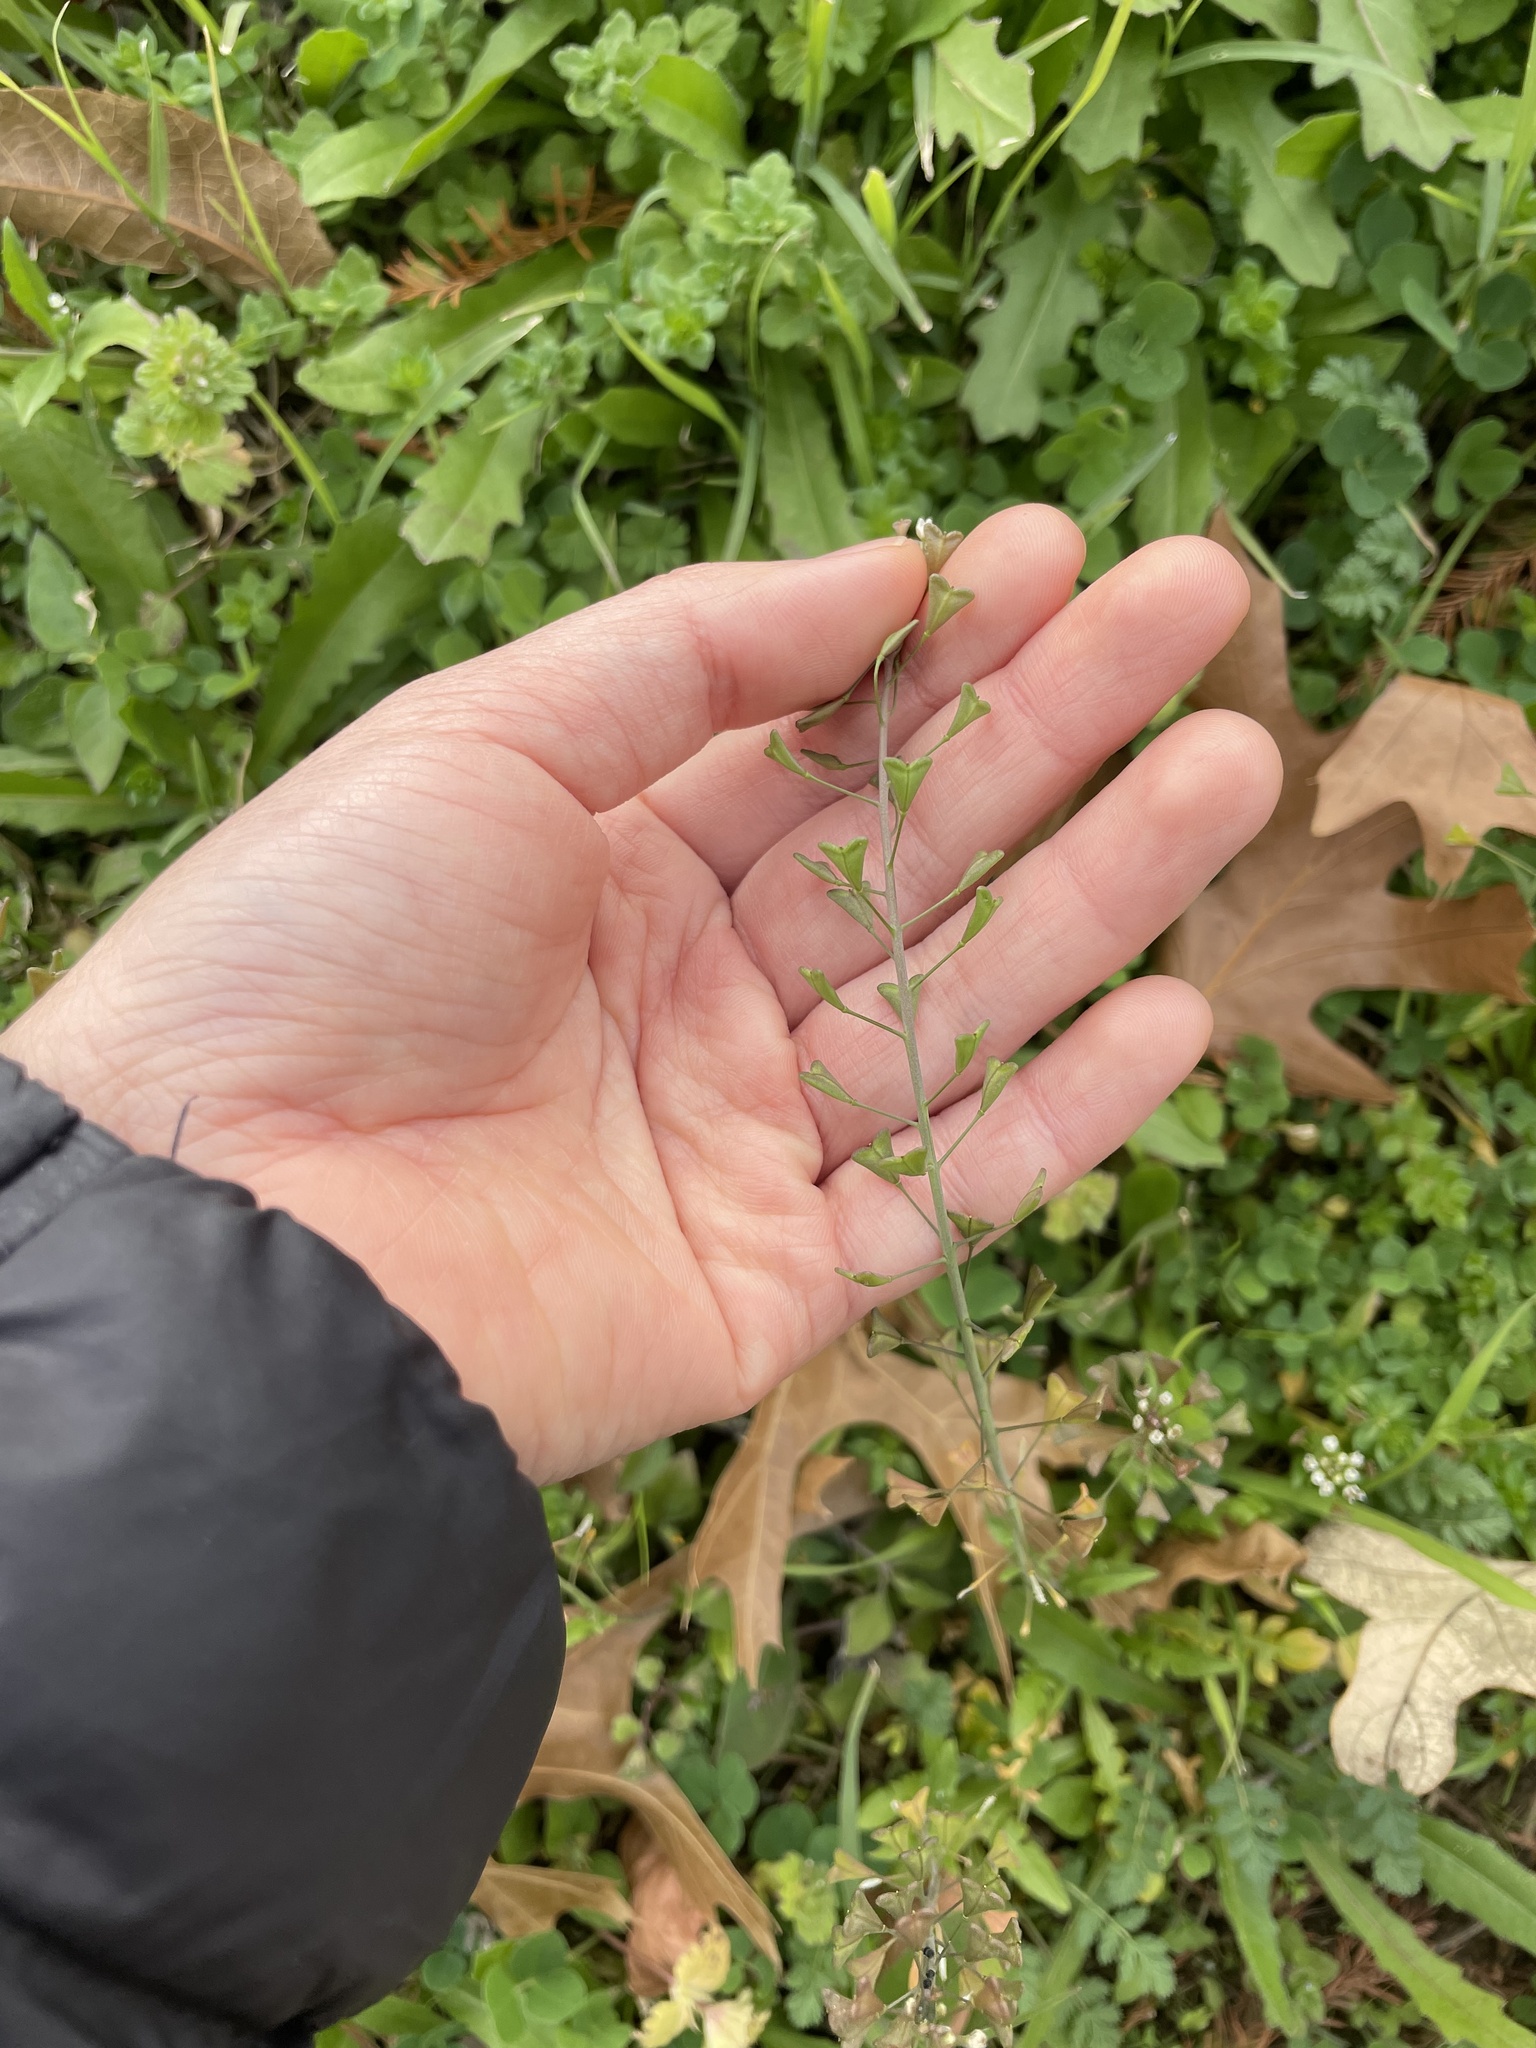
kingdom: Plantae
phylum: Tracheophyta
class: Magnoliopsida
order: Brassicales
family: Brassicaceae
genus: Capsella
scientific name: Capsella bursa-pastoris
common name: Shepherd's purse
